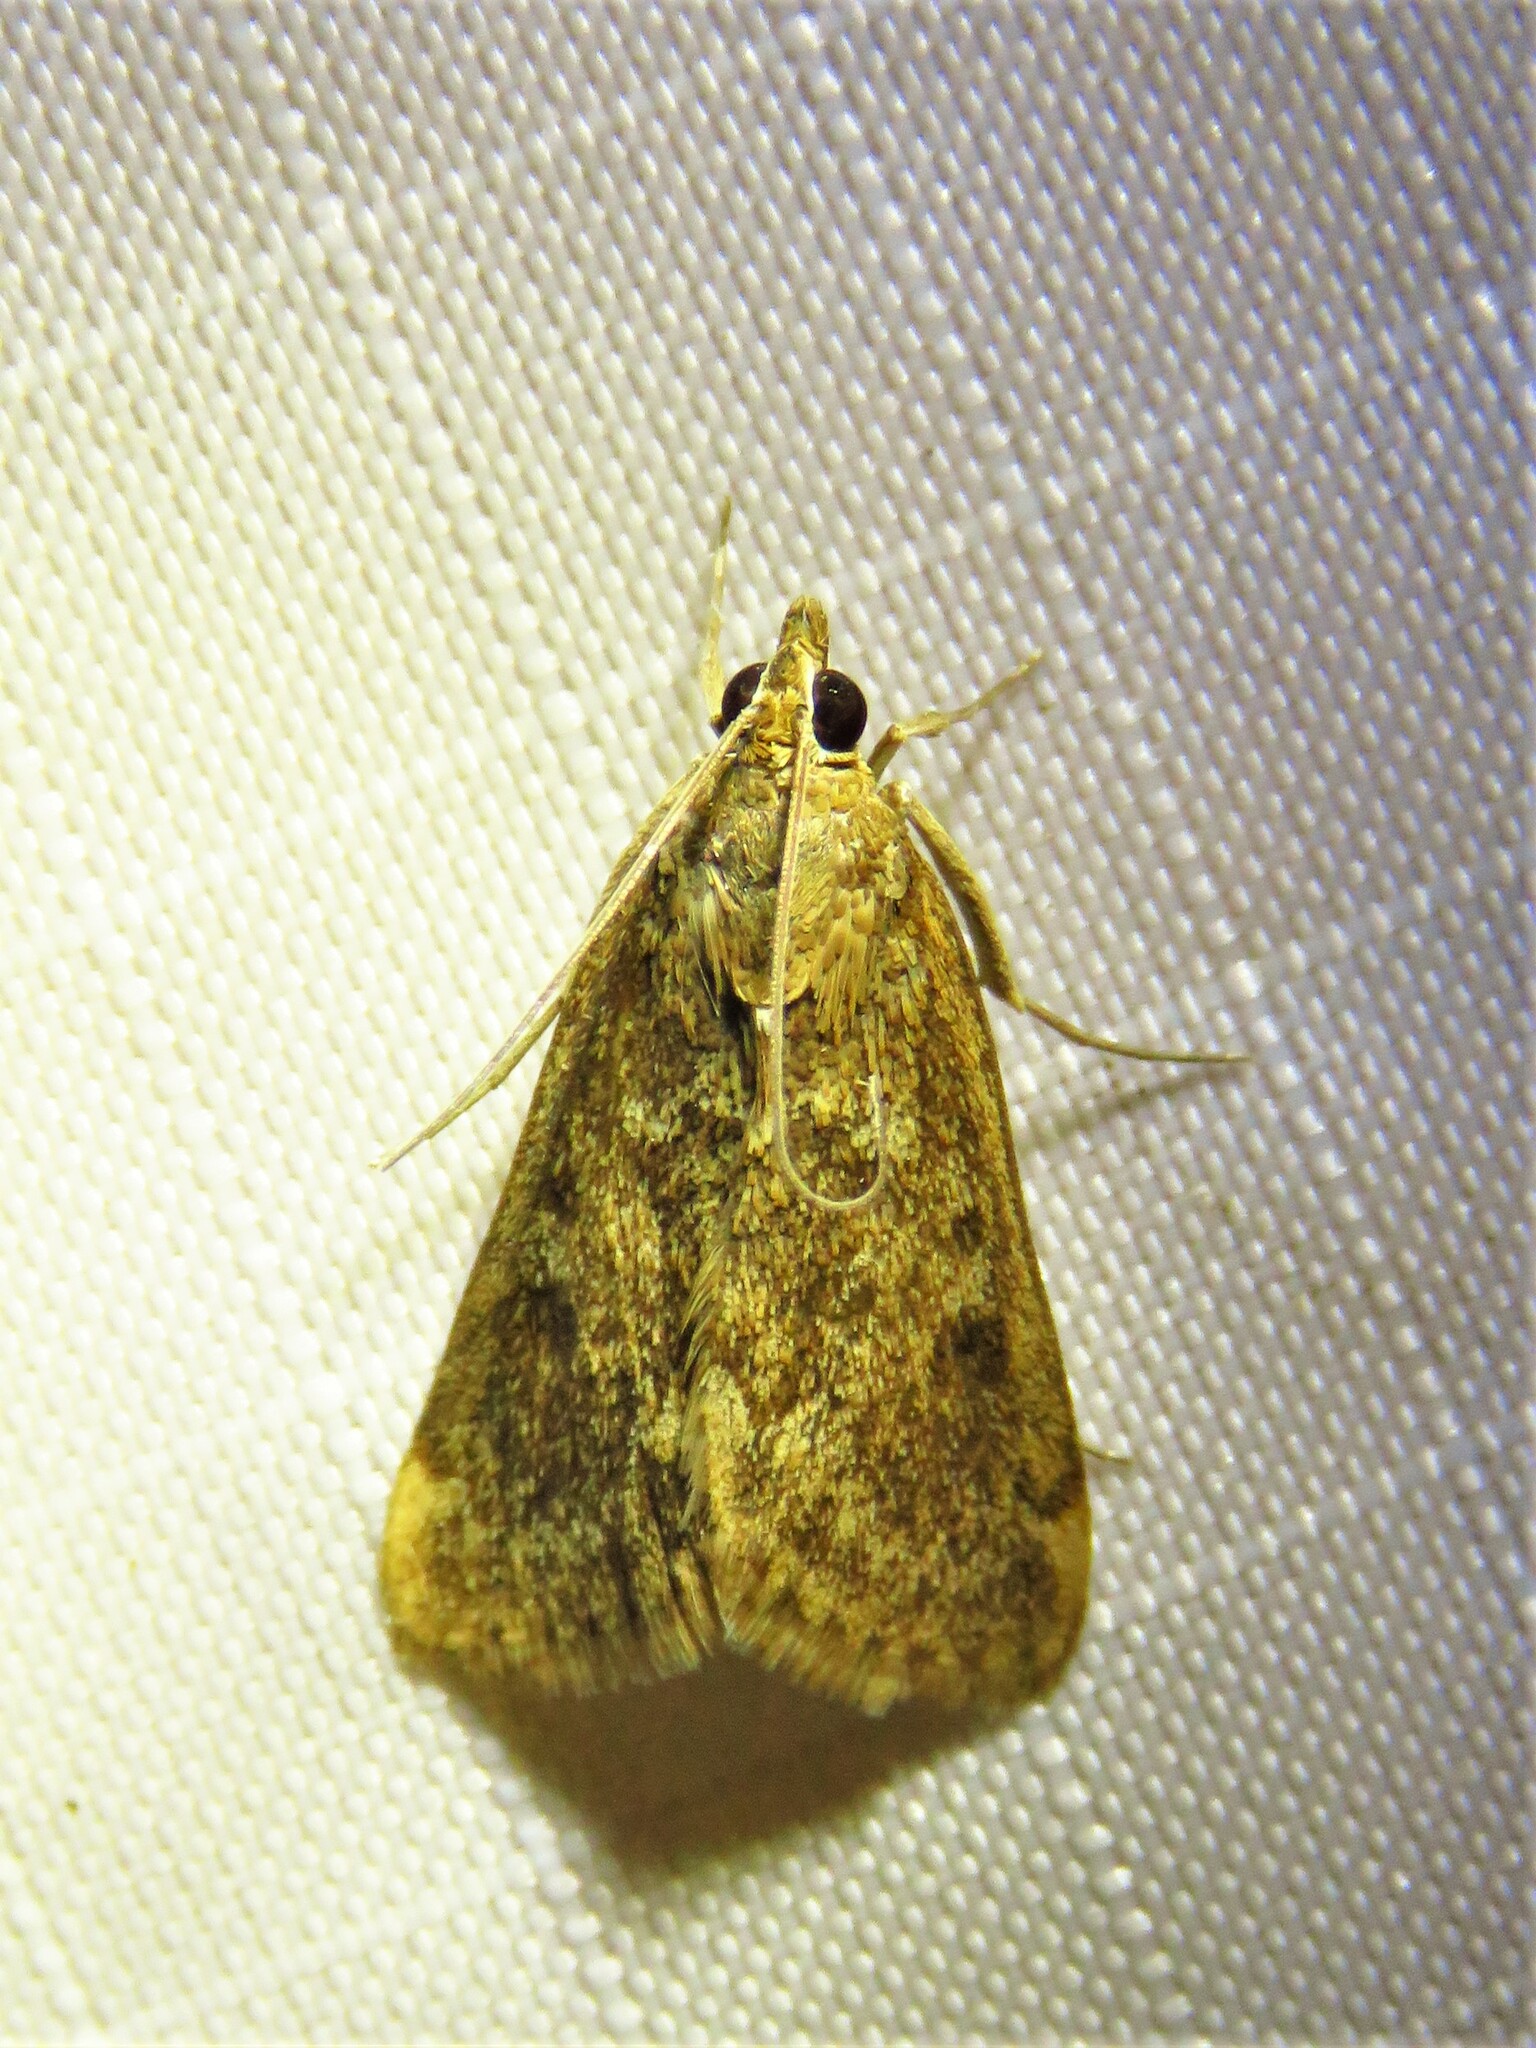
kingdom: Animalia
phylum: Arthropoda
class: Insecta
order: Lepidoptera
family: Crambidae
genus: Achyra
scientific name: Achyra rantalis
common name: Garden webworm
